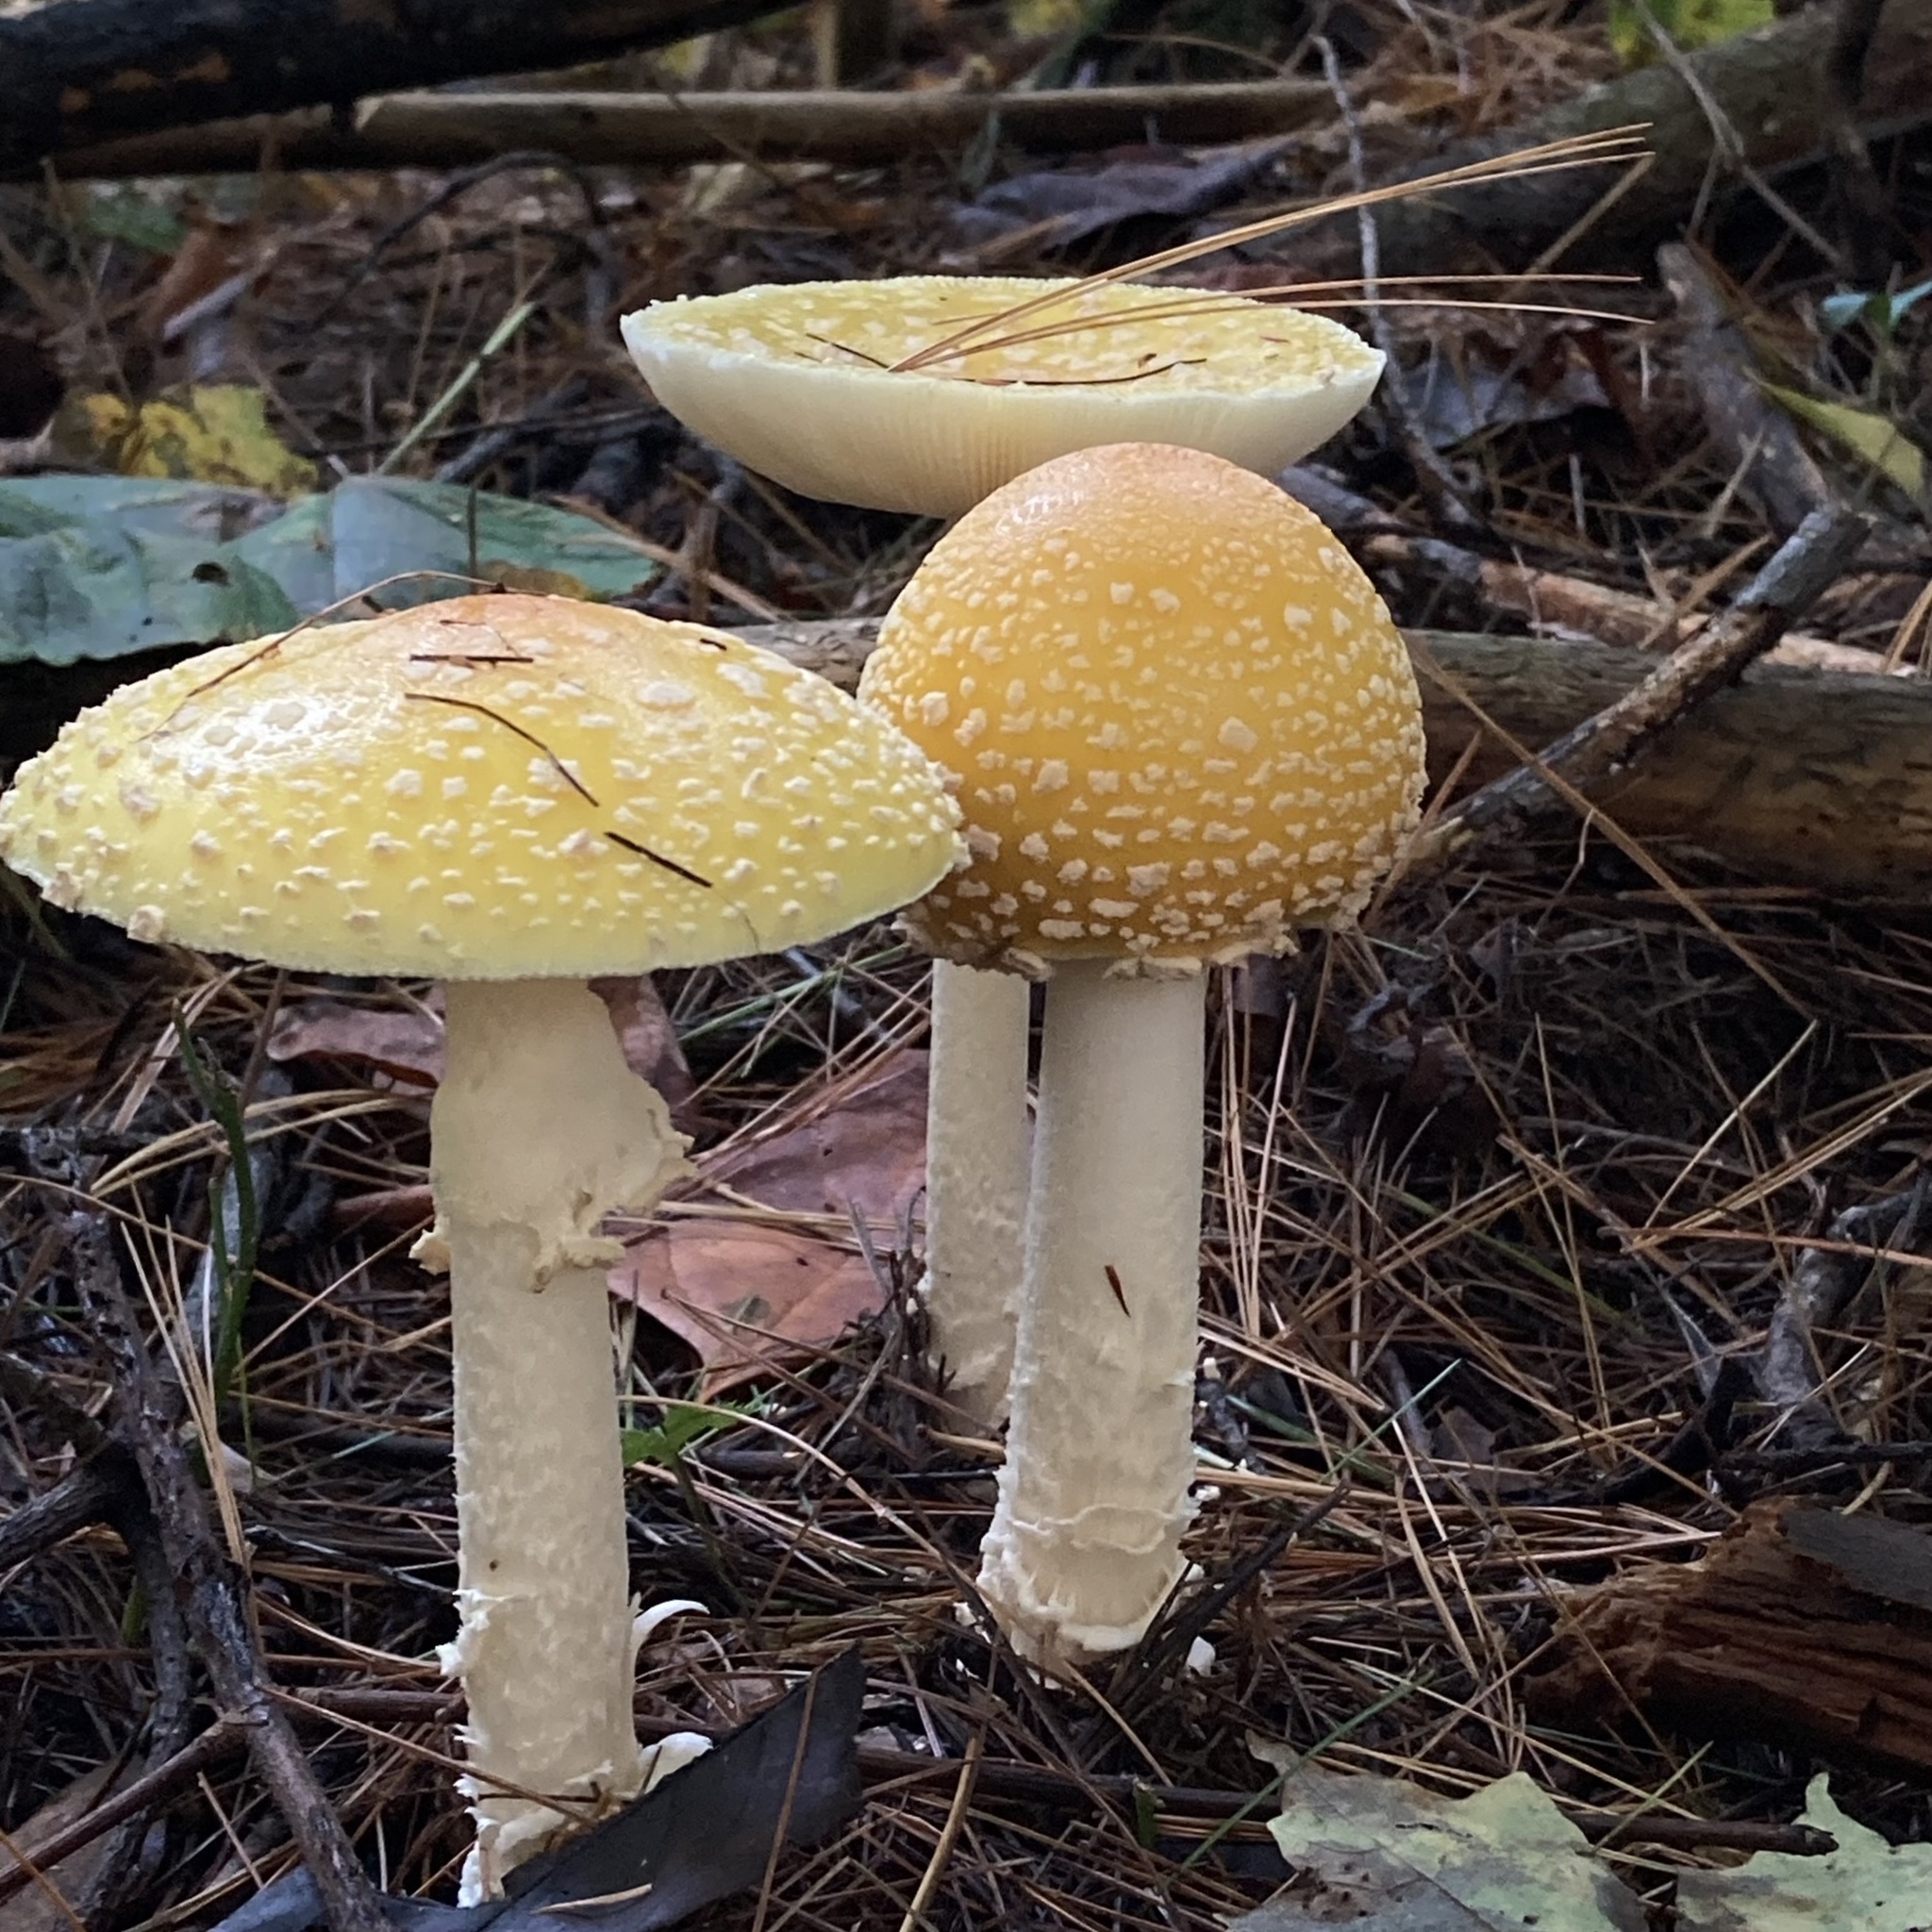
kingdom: Fungi
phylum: Basidiomycota
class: Agaricomycetes
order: Agaricales
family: Amanitaceae
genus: Amanita
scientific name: Amanita muscaria
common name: Fly agaric
